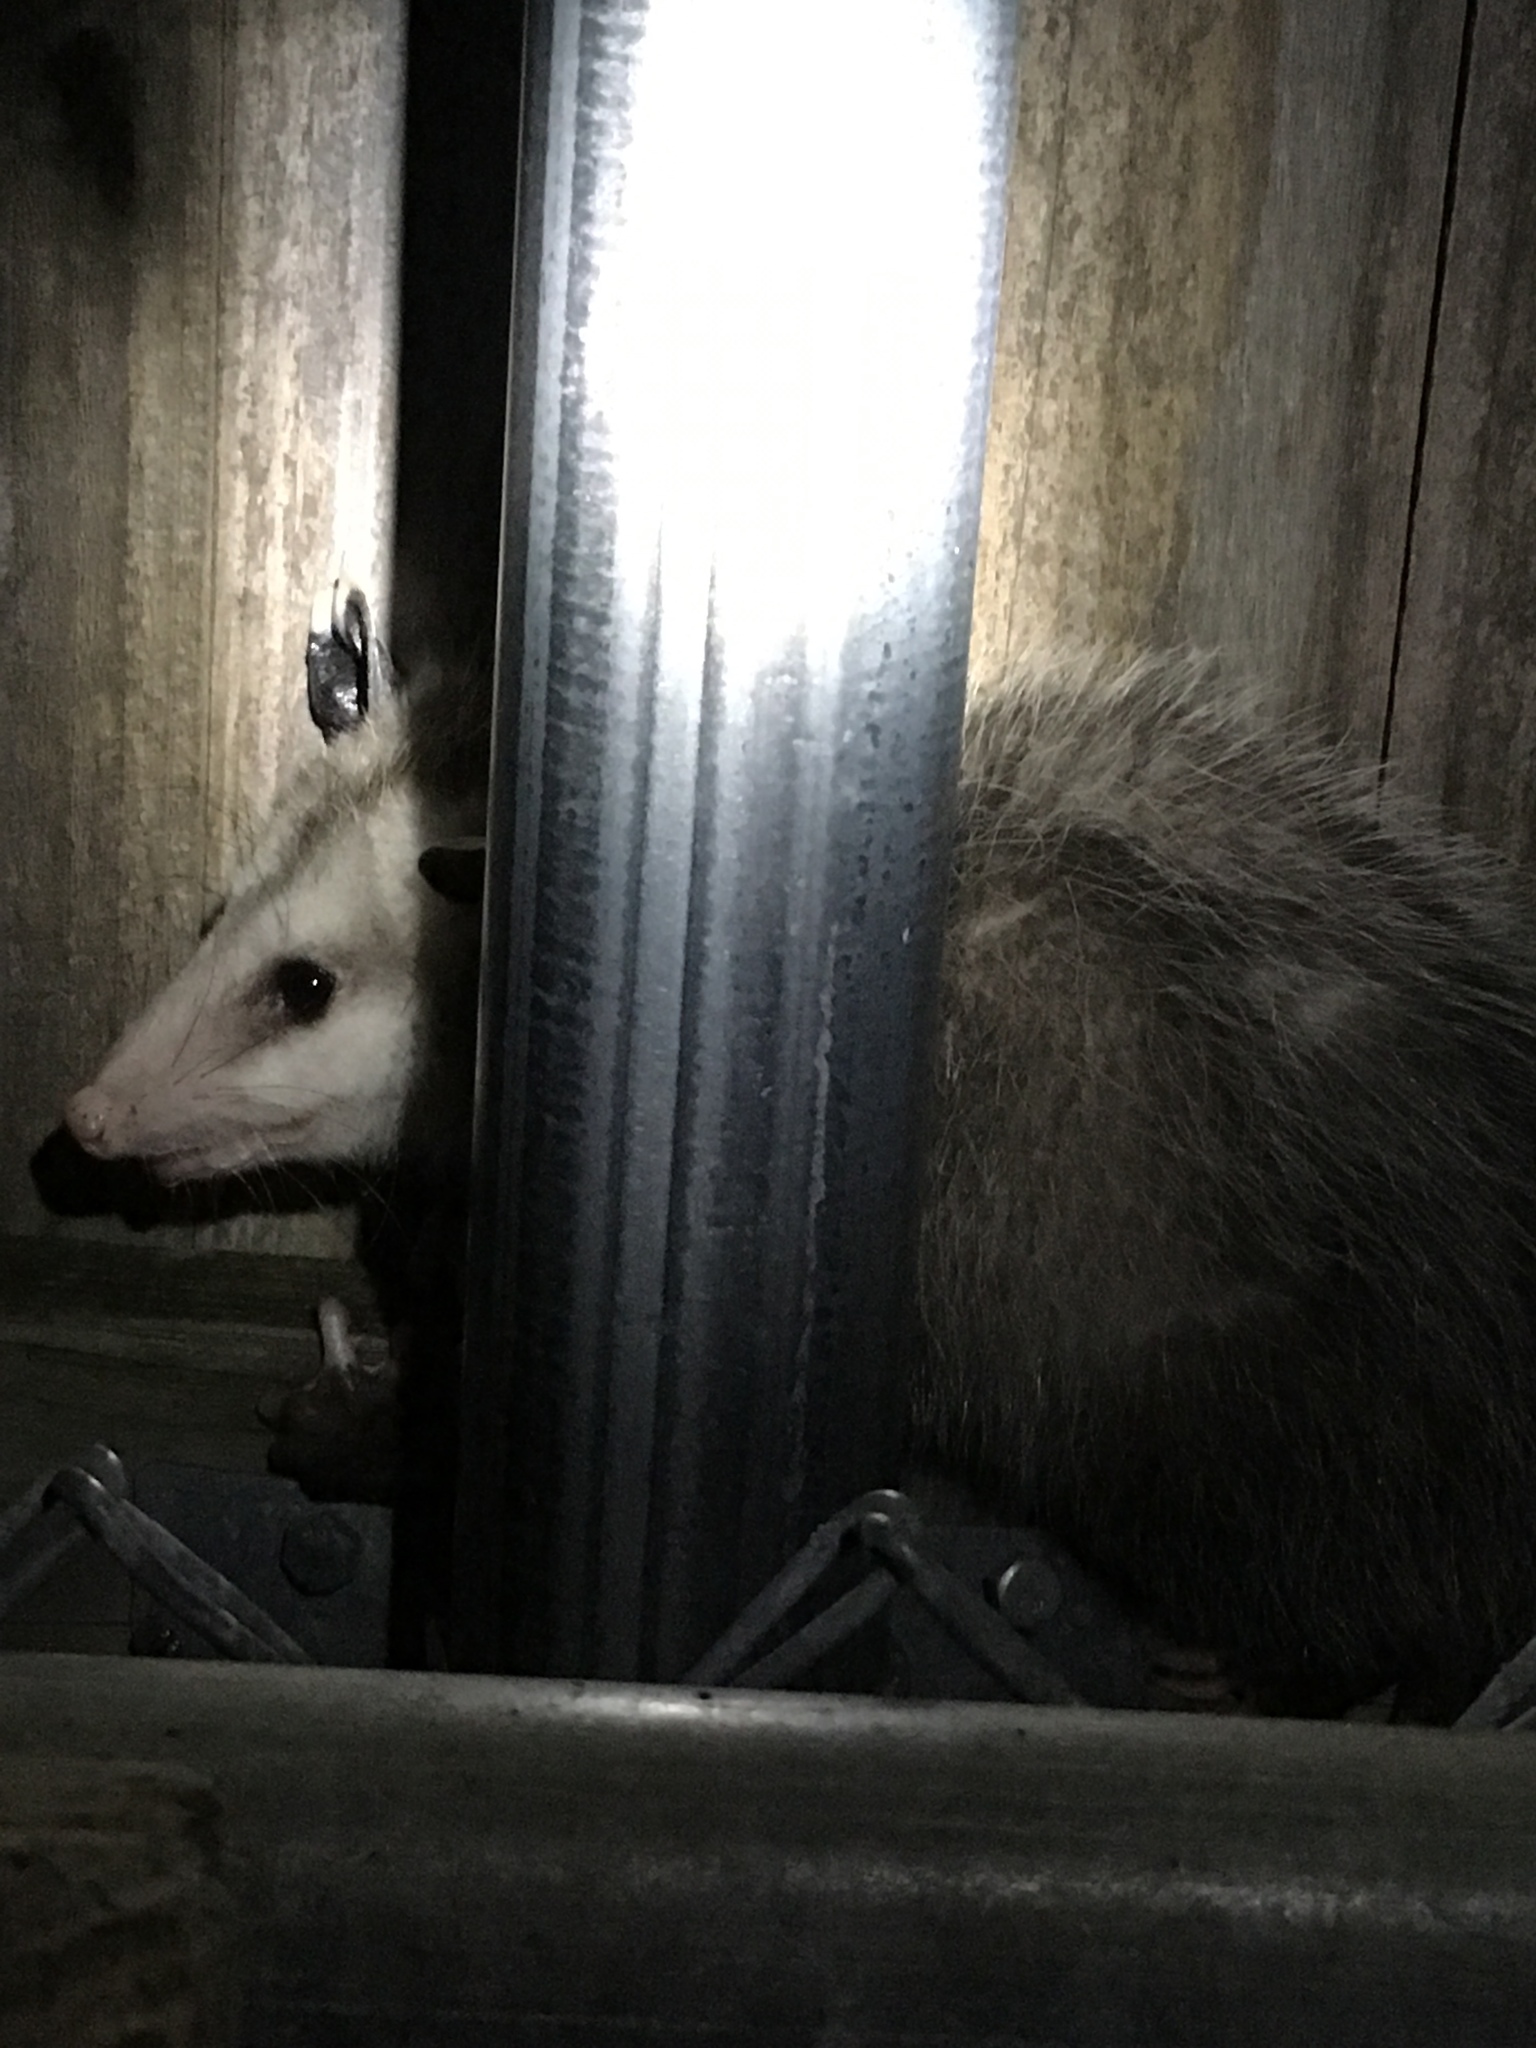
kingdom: Animalia
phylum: Chordata
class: Mammalia
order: Didelphimorphia
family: Didelphidae
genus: Didelphis
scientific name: Didelphis virginiana
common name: Virginia opossum
